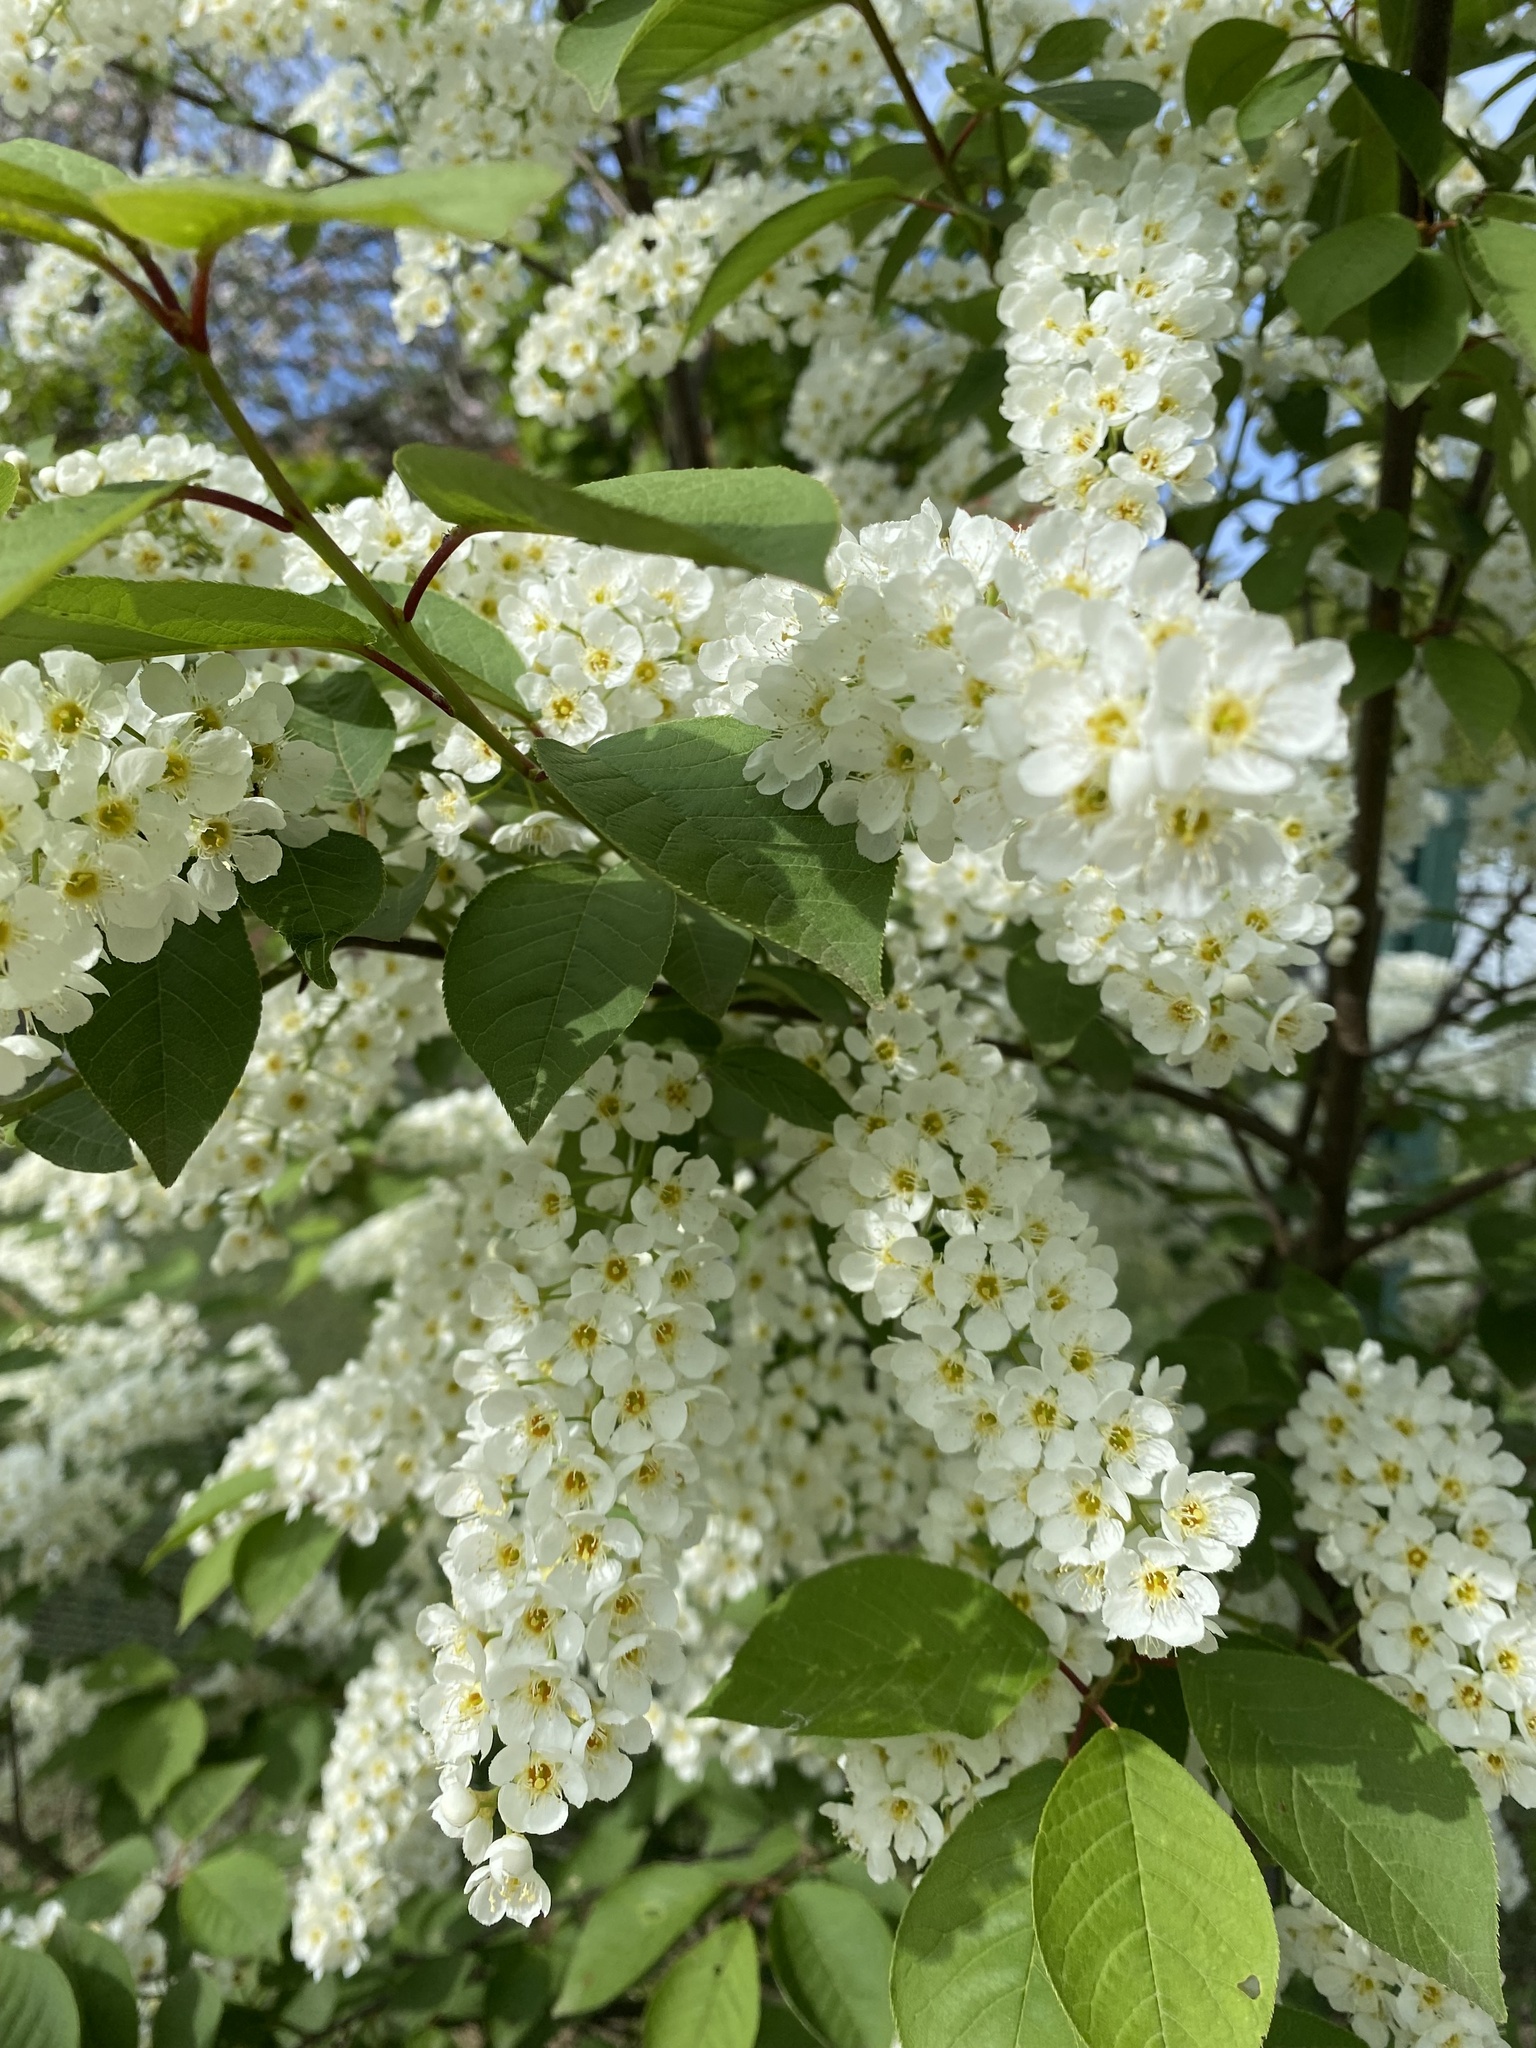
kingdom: Plantae
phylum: Tracheophyta
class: Magnoliopsida
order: Rosales
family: Rosaceae
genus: Prunus
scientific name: Prunus padus
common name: Bird cherry
